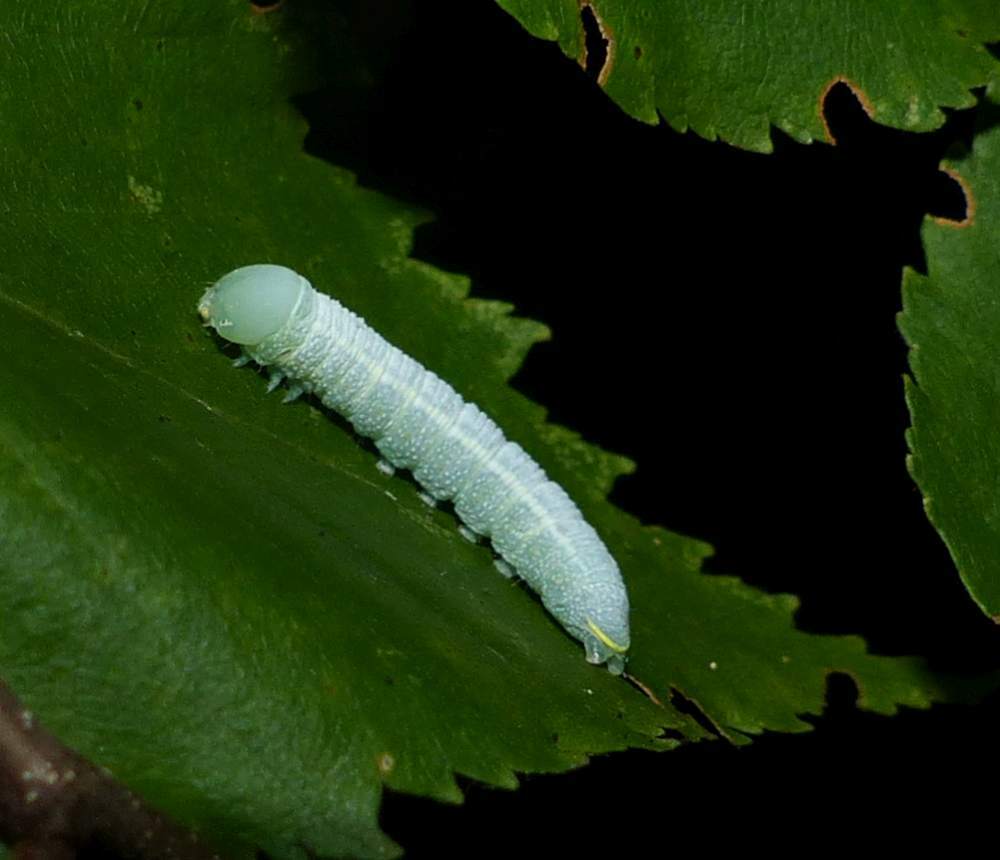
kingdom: Animalia
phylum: Arthropoda
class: Insecta
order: Lepidoptera
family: Notodontidae
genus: Nadata
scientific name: Nadata gibbosa
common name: White-dotted prominent
